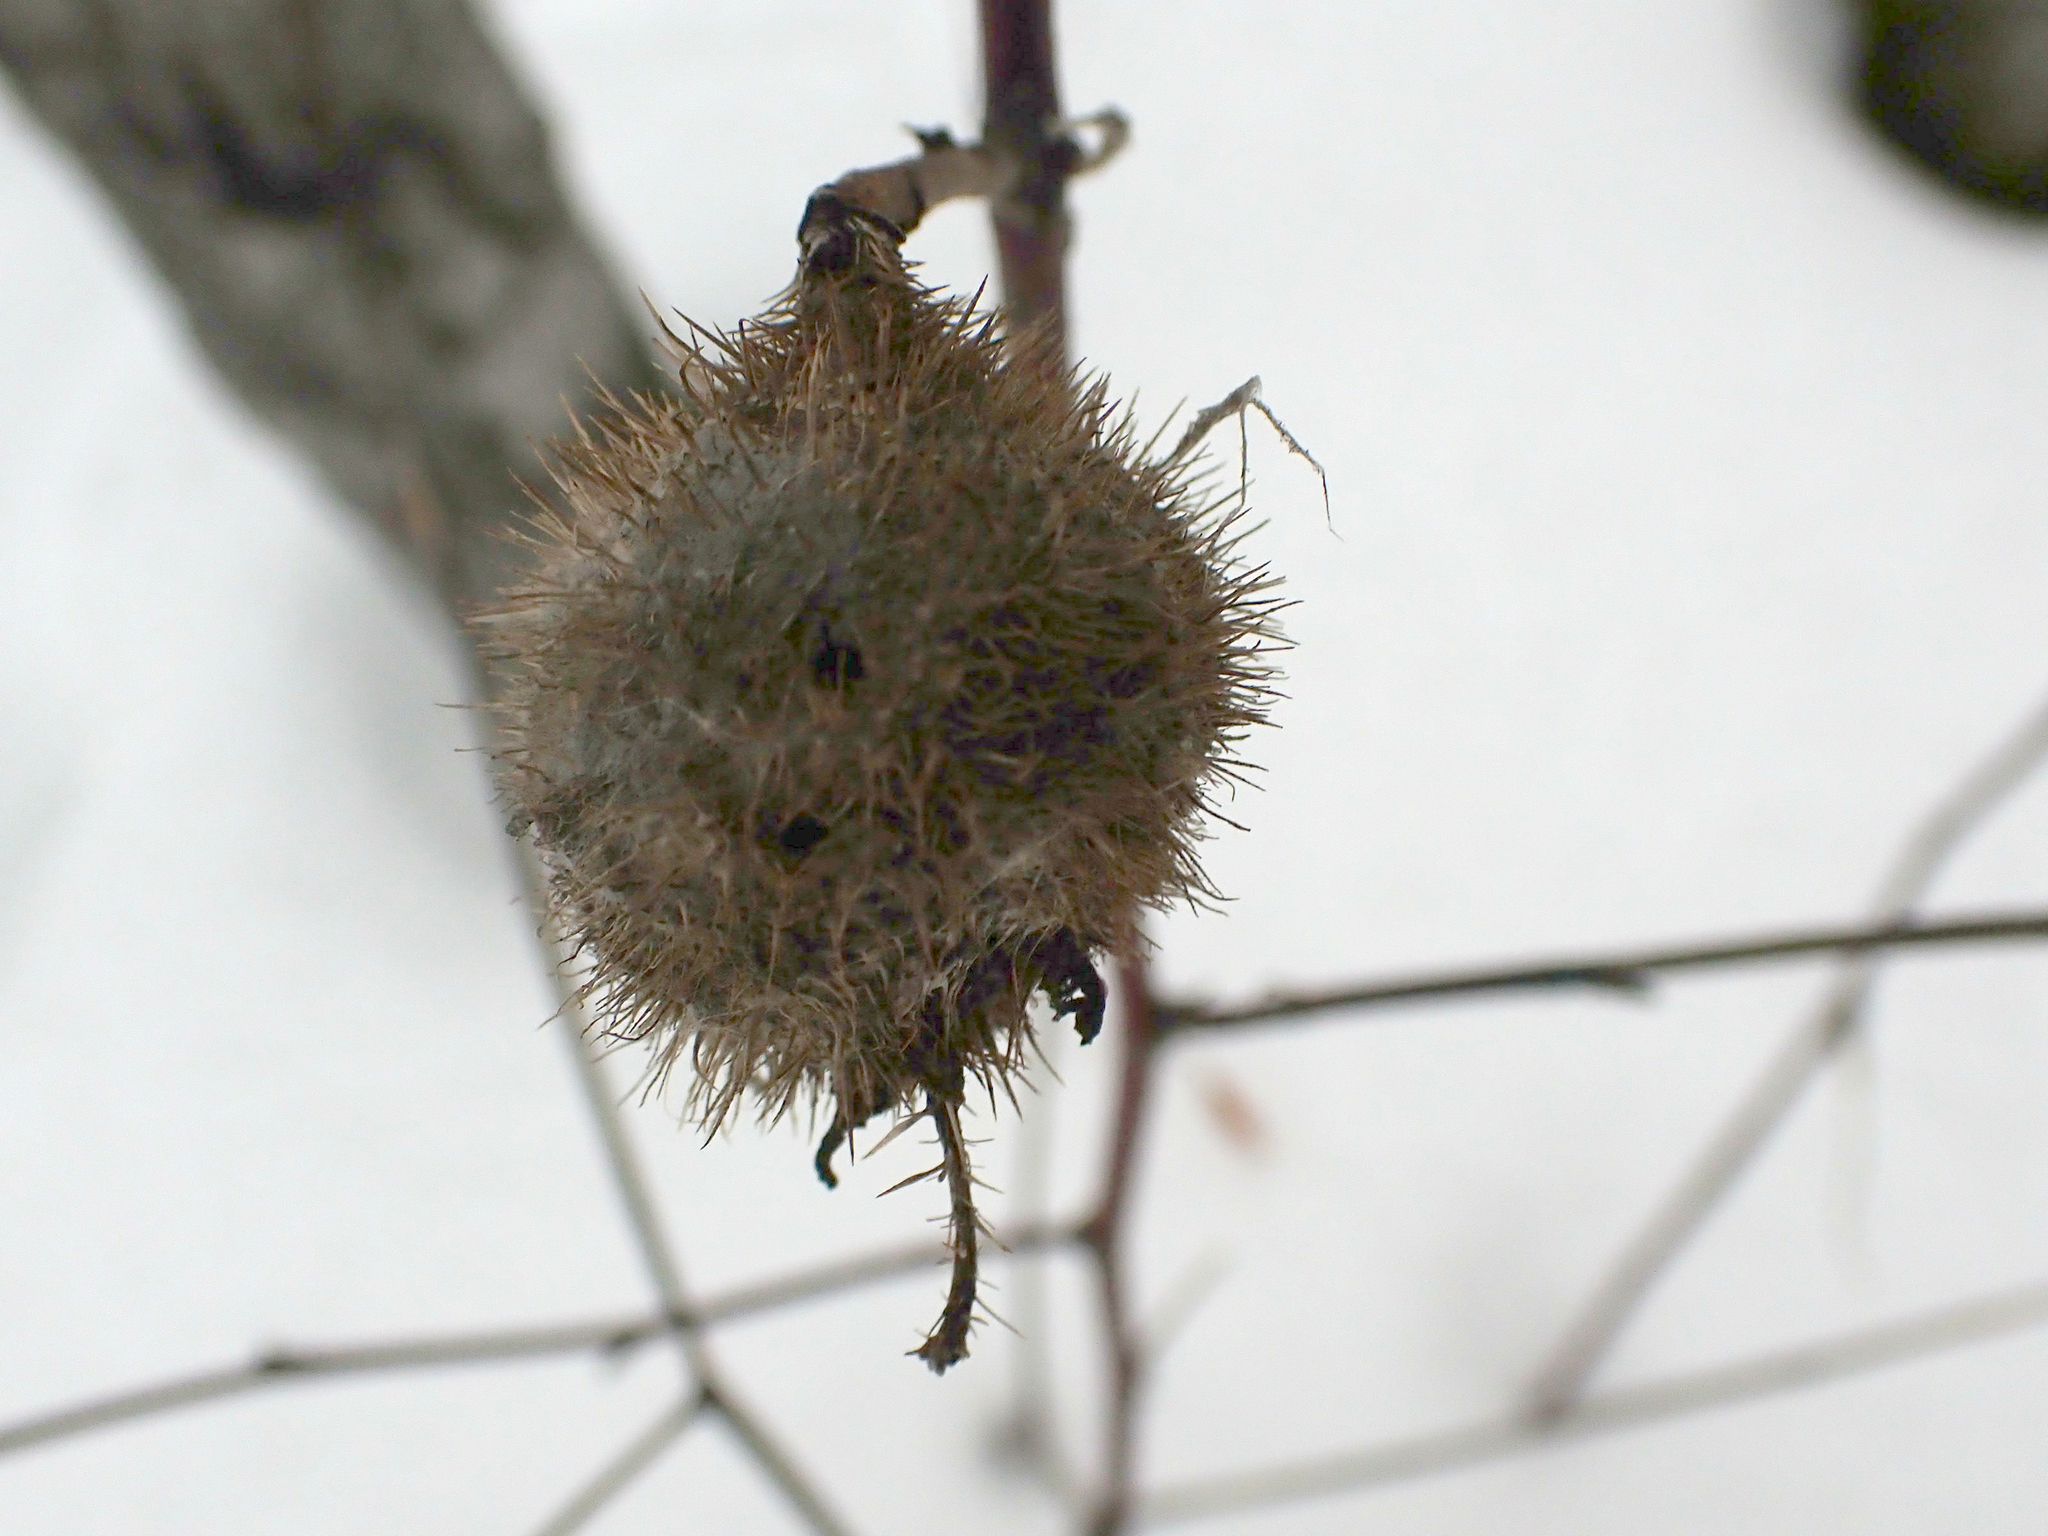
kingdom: Animalia
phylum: Arthropoda
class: Insecta
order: Hymenoptera
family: Cynipidae
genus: Diplolepis
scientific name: Diplolepis spinosa
